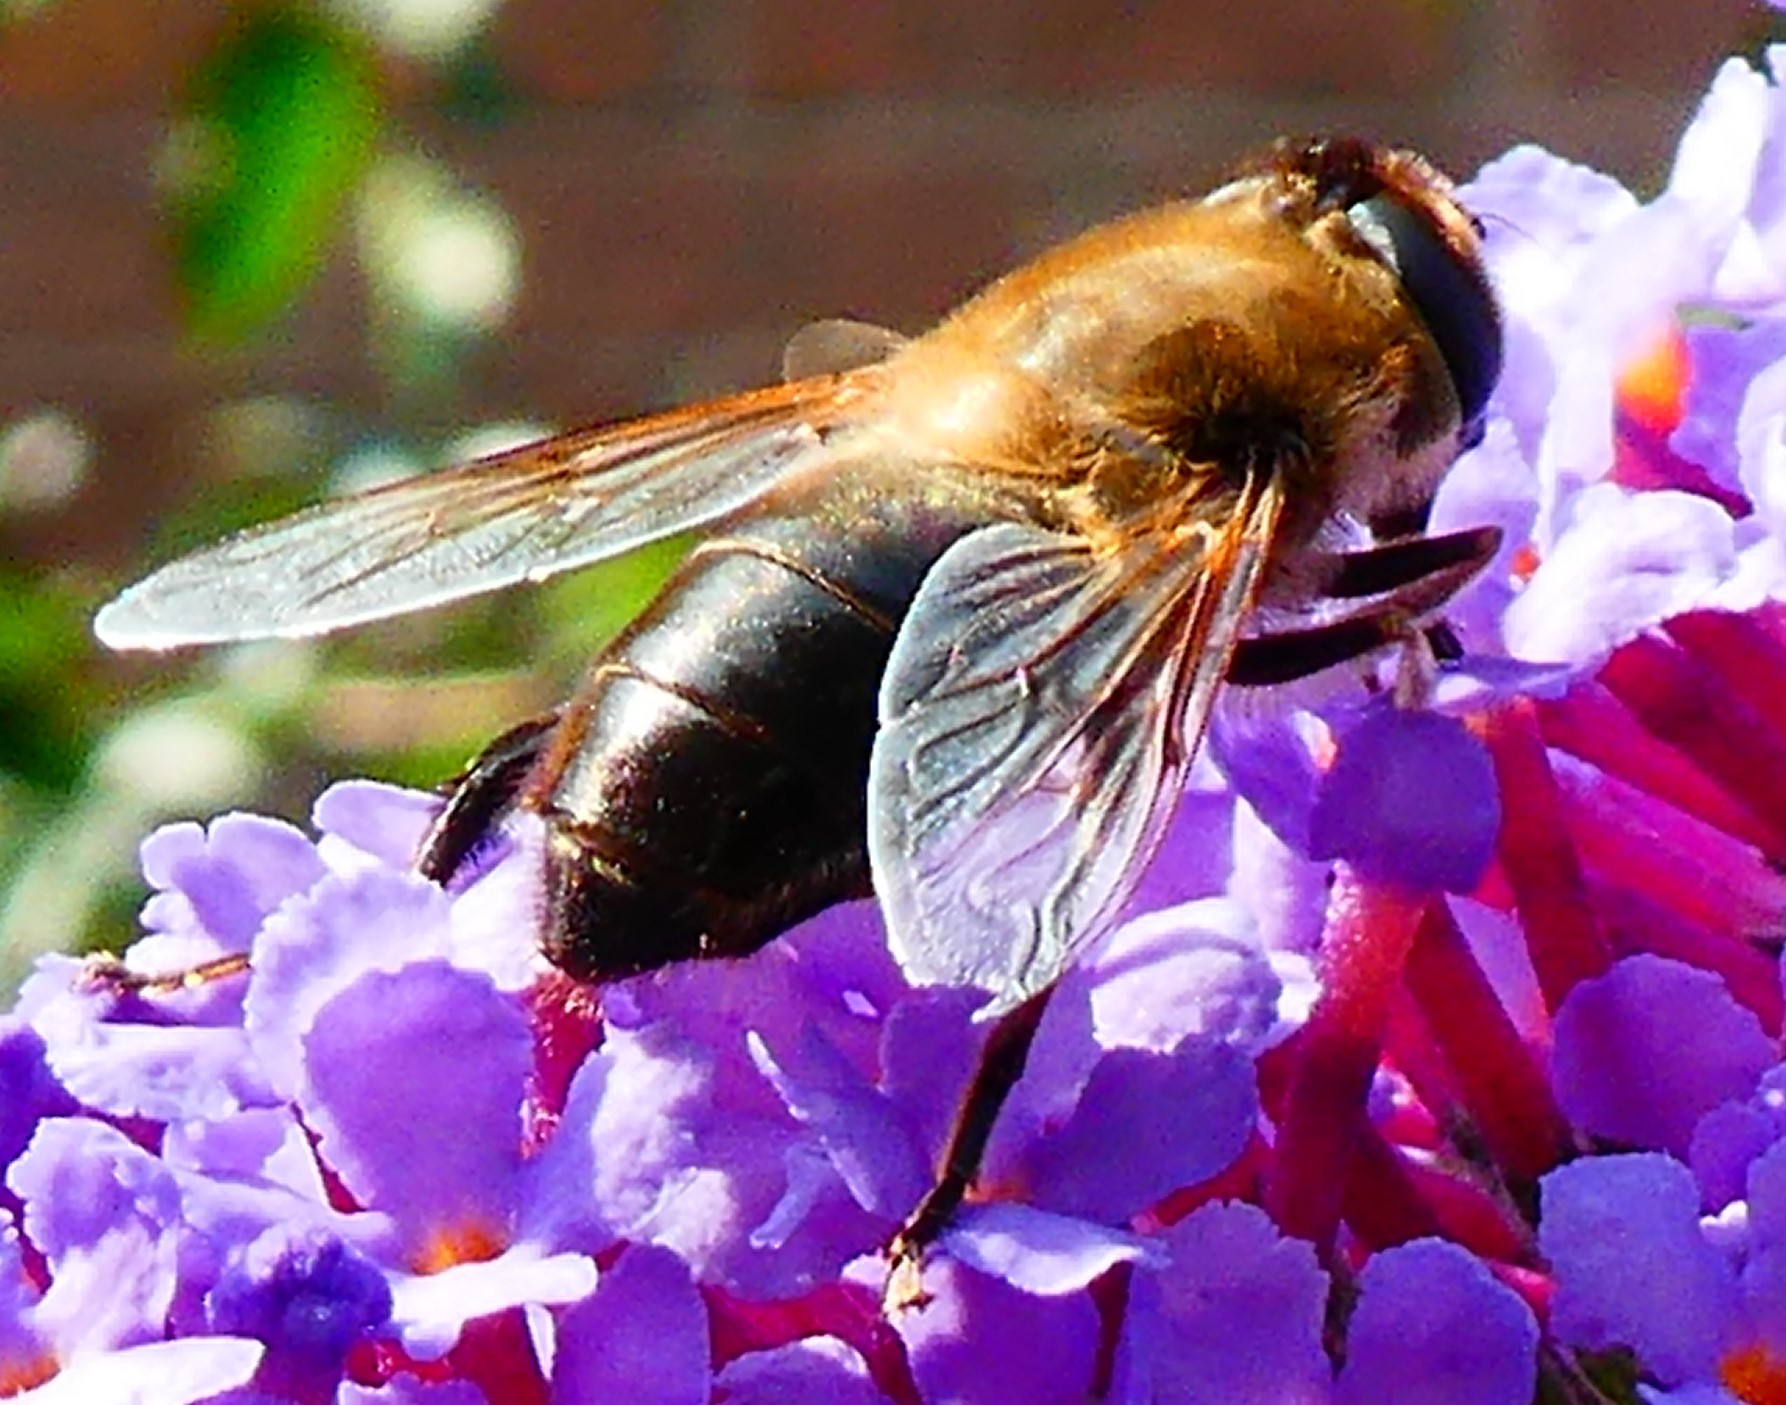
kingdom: Animalia
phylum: Arthropoda
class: Insecta
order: Diptera
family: Syrphidae
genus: Eristalis
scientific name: Eristalis tenax
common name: Drone fly
